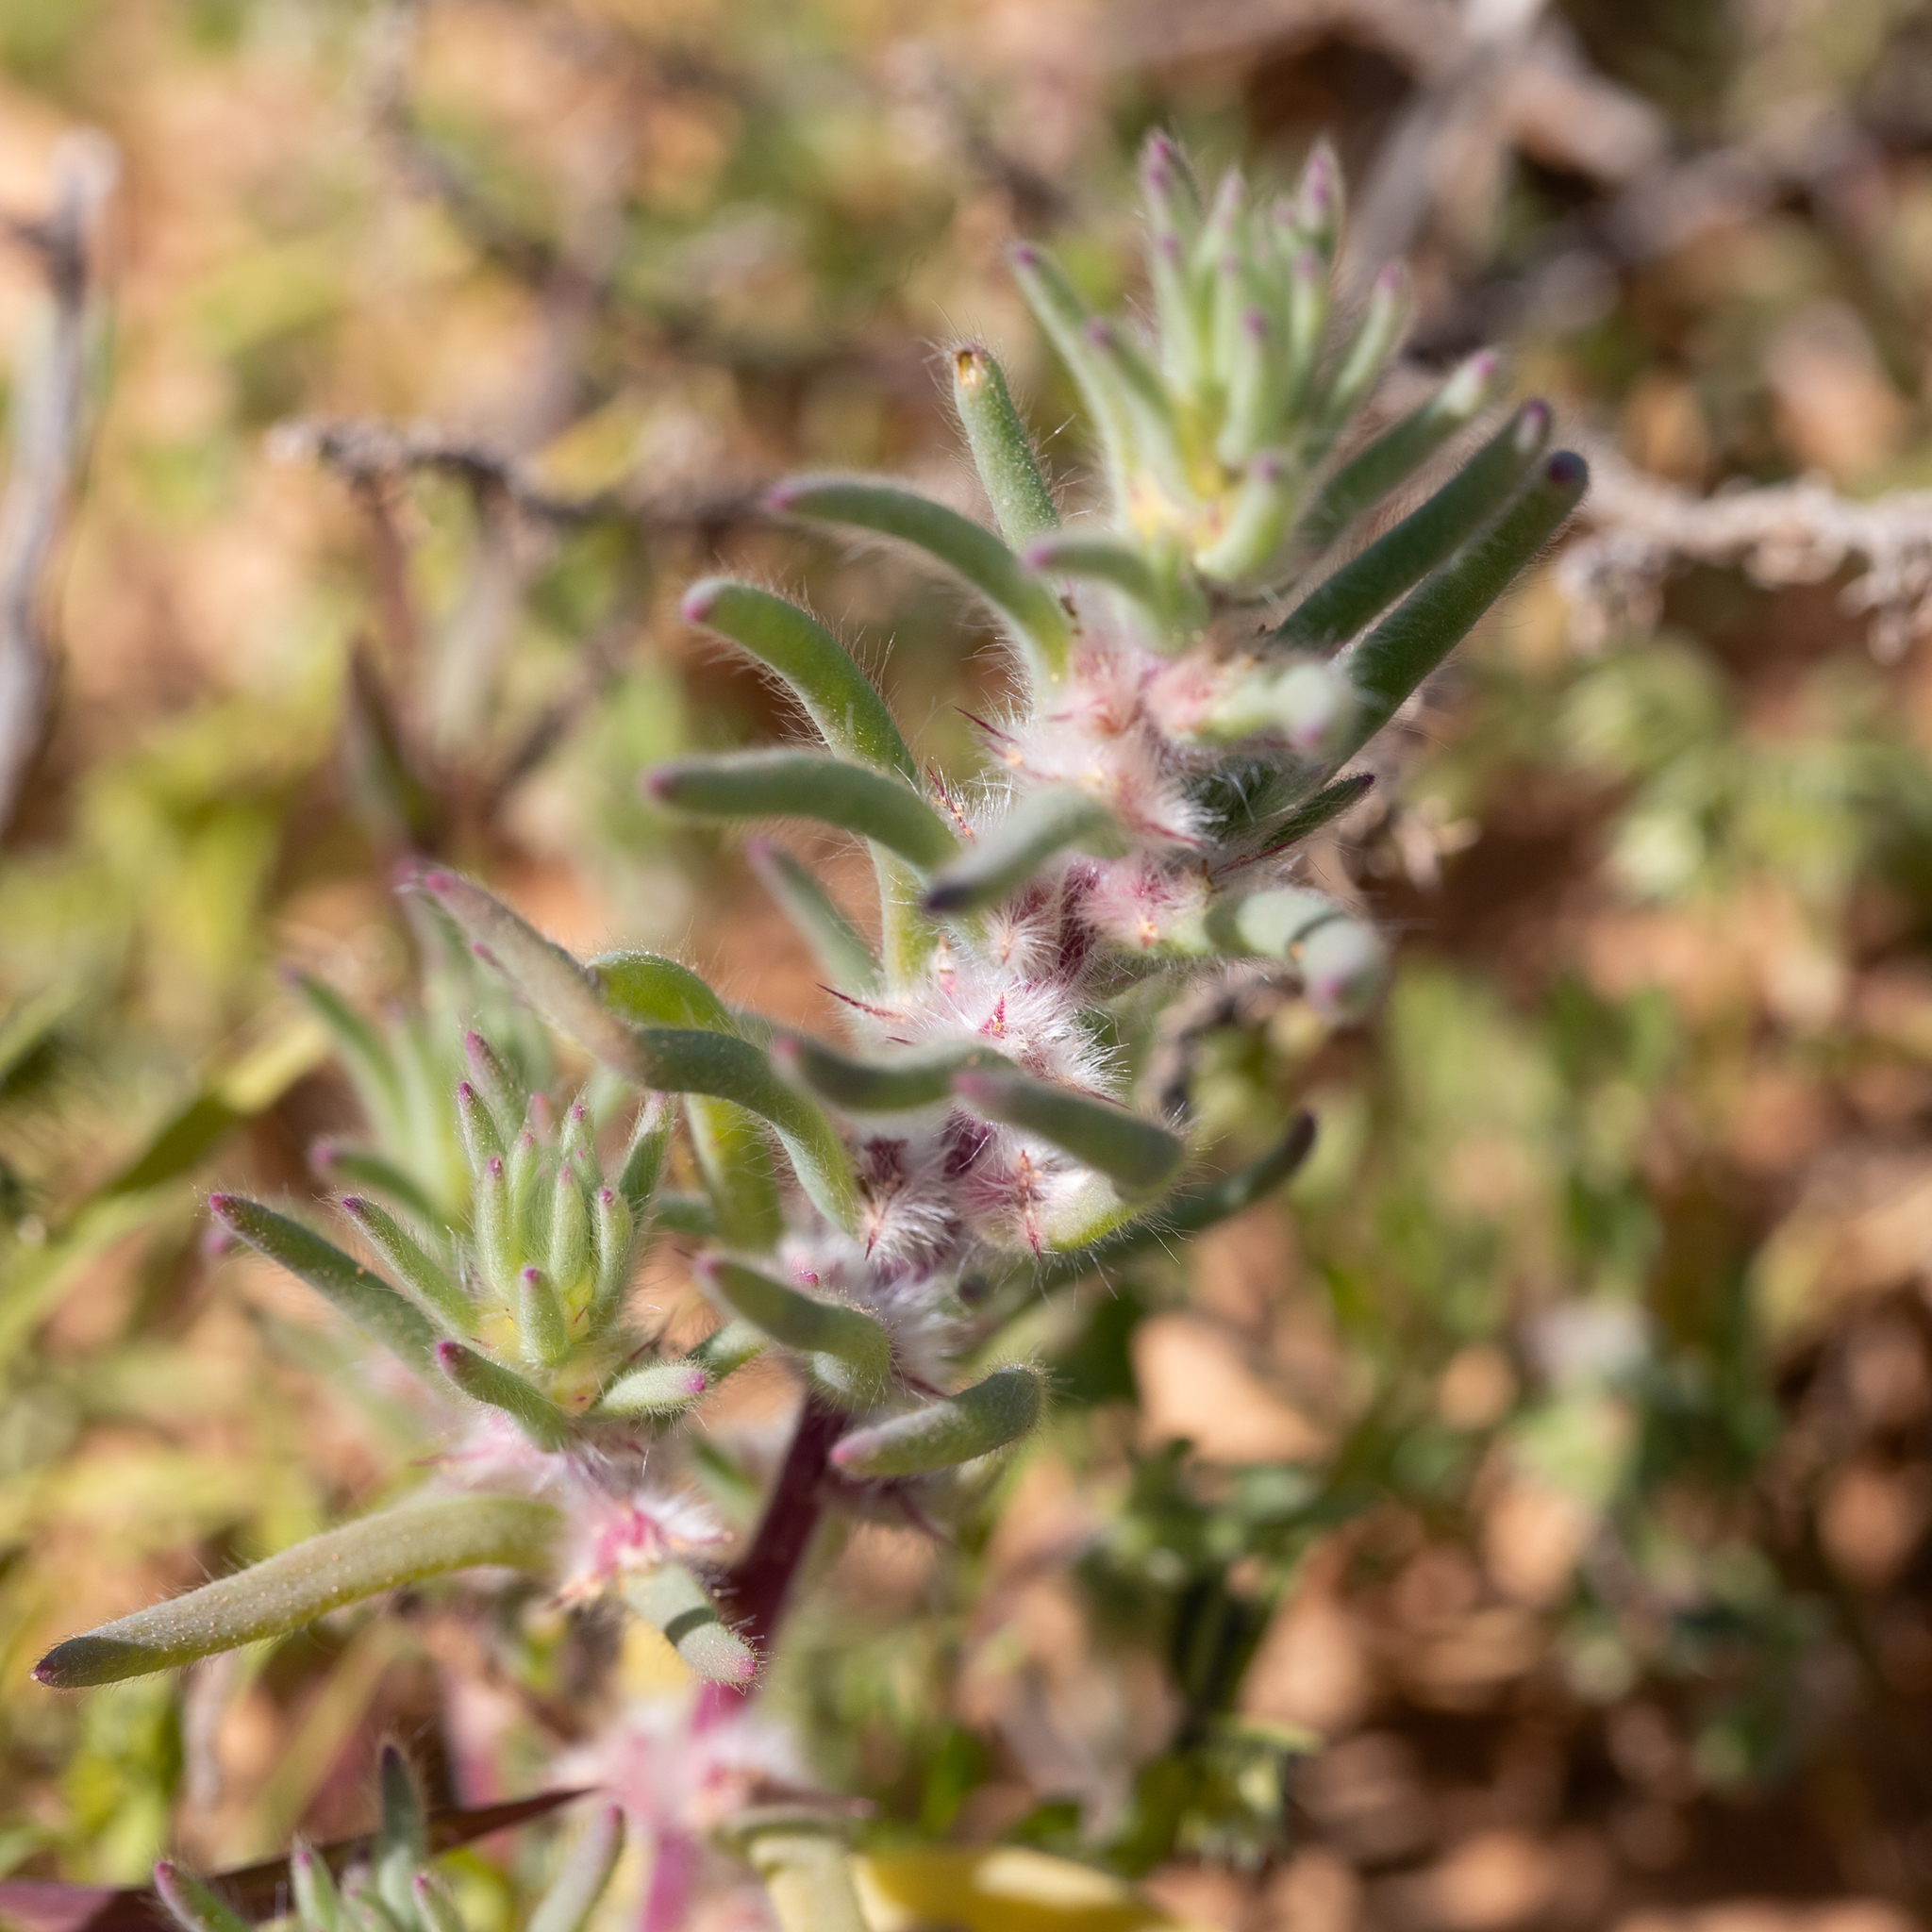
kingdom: Plantae
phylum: Tracheophyta
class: Magnoliopsida
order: Caryophyllales
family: Amaranthaceae
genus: Sclerolaena
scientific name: Sclerolaena lanicuspis
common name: Copperbur
